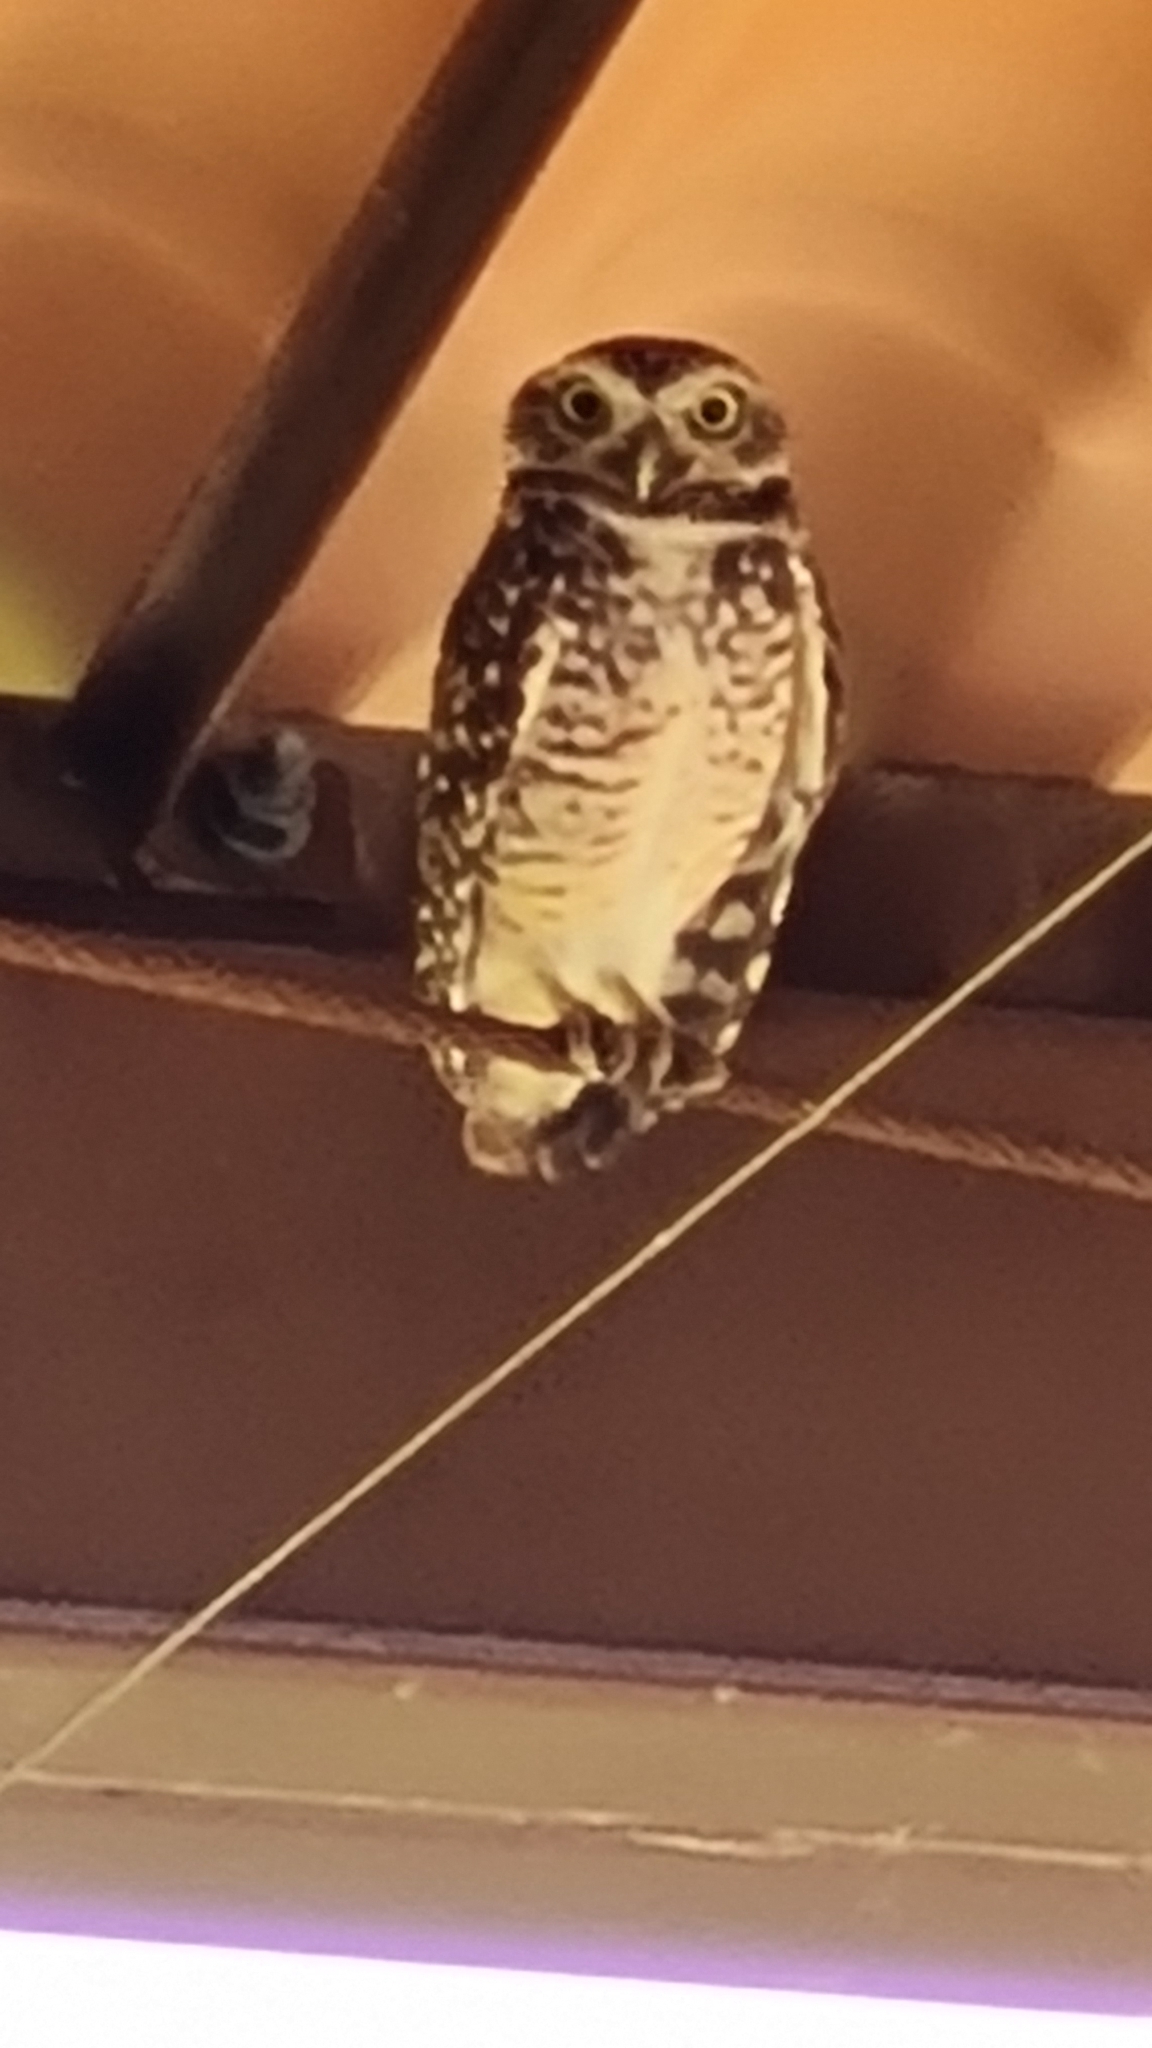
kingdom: Animalia
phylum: Chordata
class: Aves
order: Strigiformes
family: Strigidae
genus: Athene
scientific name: Athene cunicularia
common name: Burrowing owl
